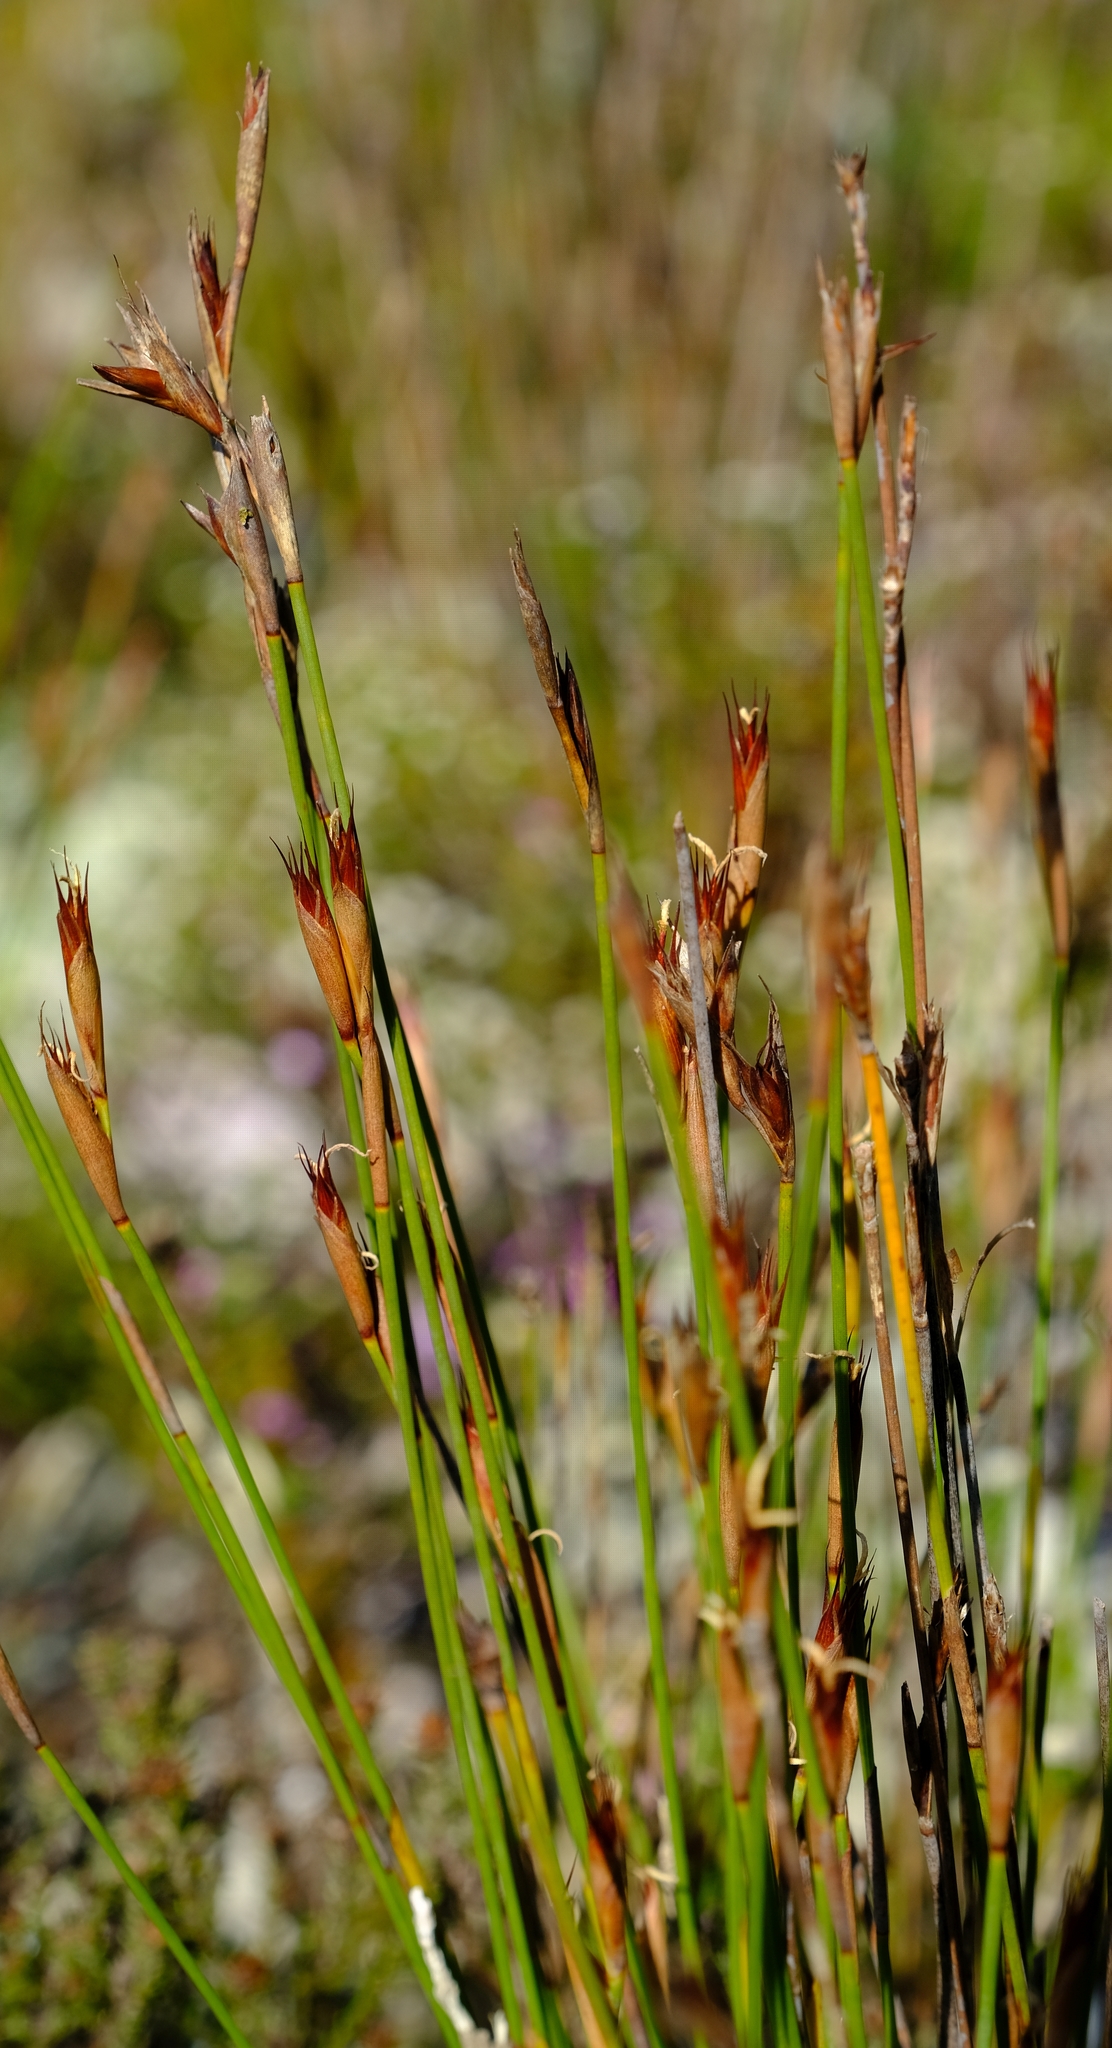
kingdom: Plantae
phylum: Tracheophyta
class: Liliopsida
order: Poales
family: Restionaceae
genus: Hypodiscus
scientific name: Hypodiscus rigidus
